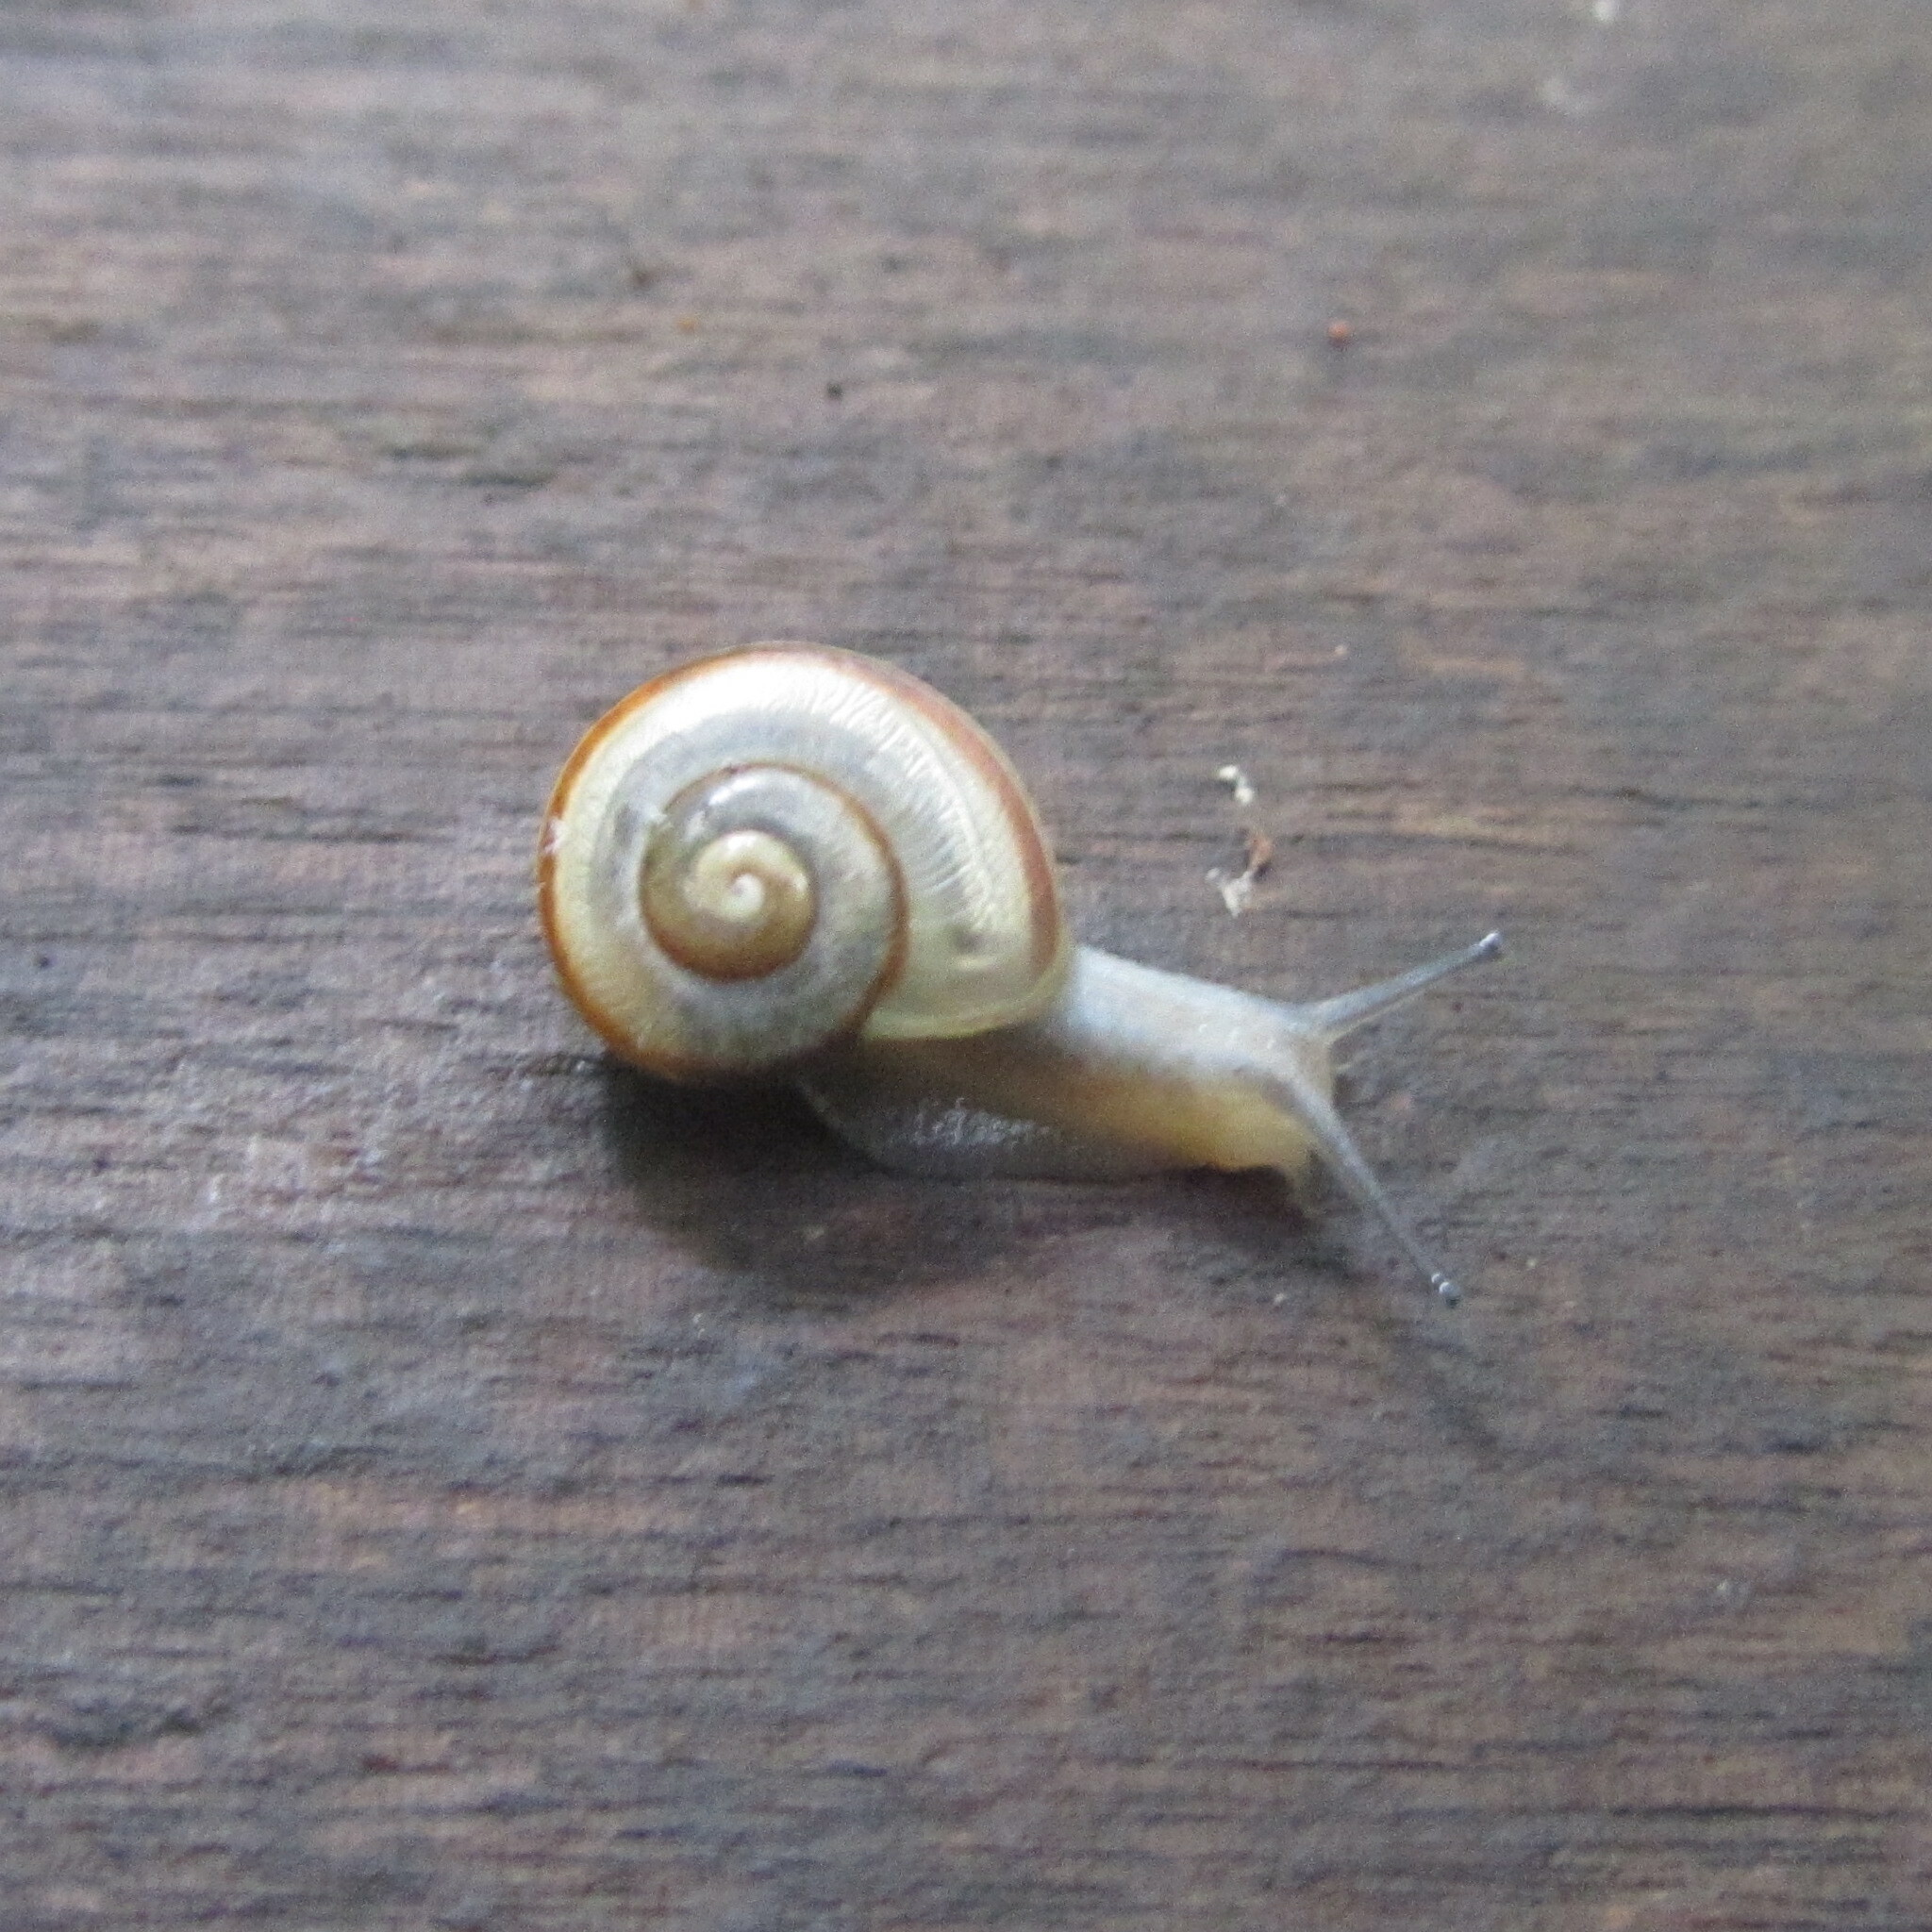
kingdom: Animalia
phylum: Mollusca
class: Gastropoda
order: Stylommatophora
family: Camaenidae
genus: Euhadra
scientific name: Euhadra peliomphala
